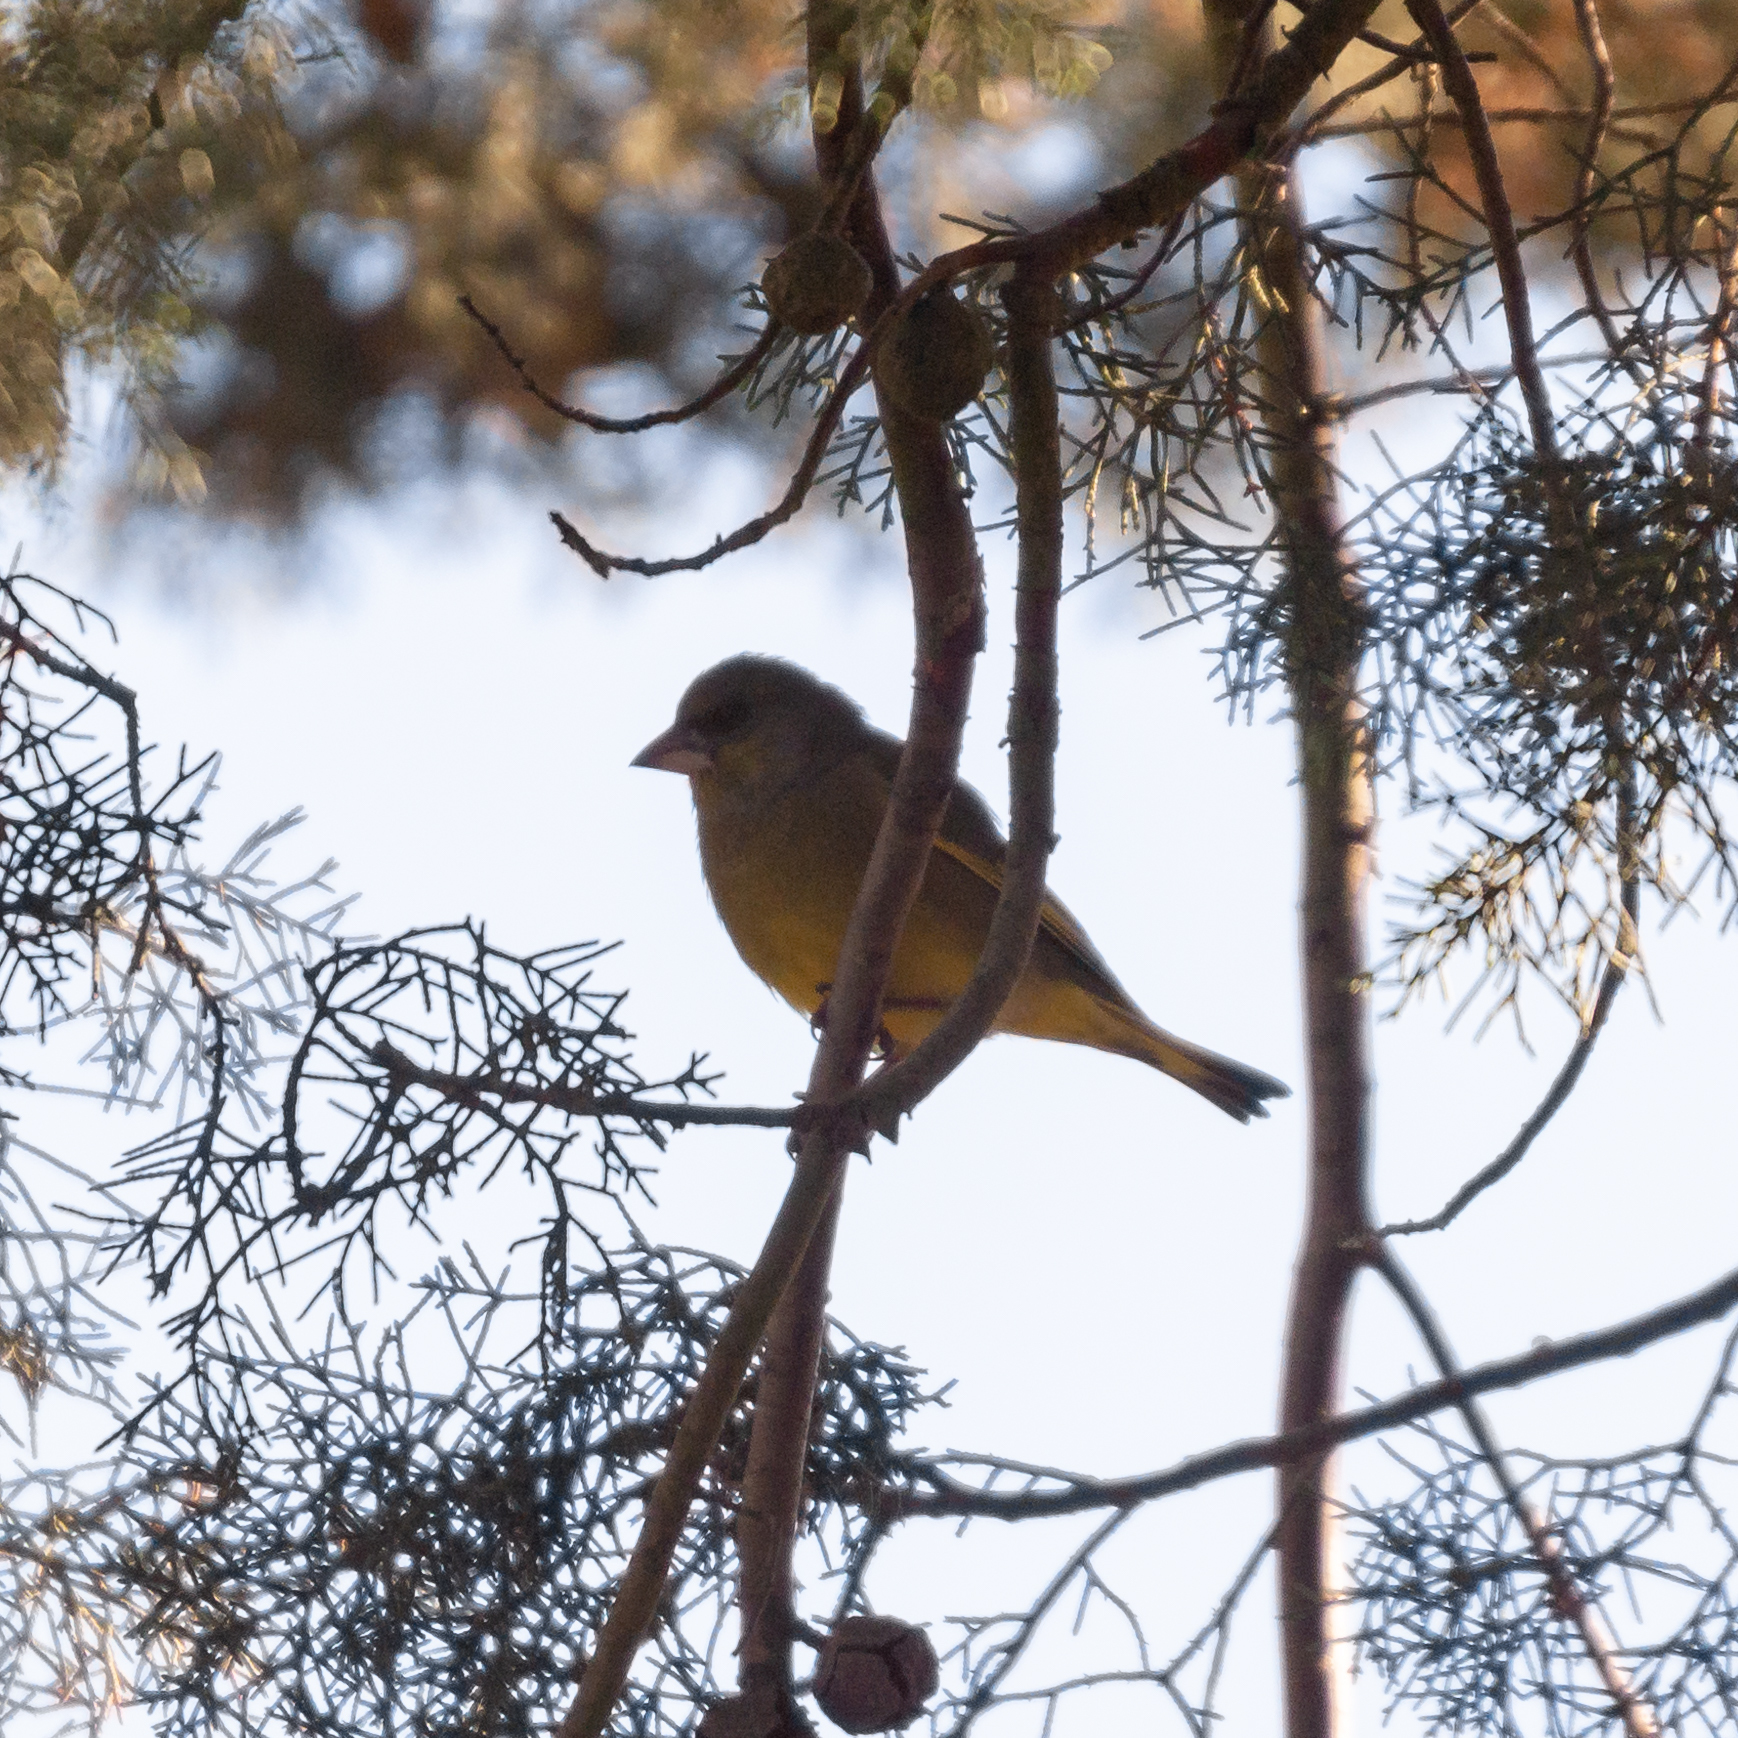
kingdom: Plantae
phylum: Tracheophyta
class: Liliopsida
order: Poales
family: Poaceae
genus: Chloris
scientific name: Chloris chloris
